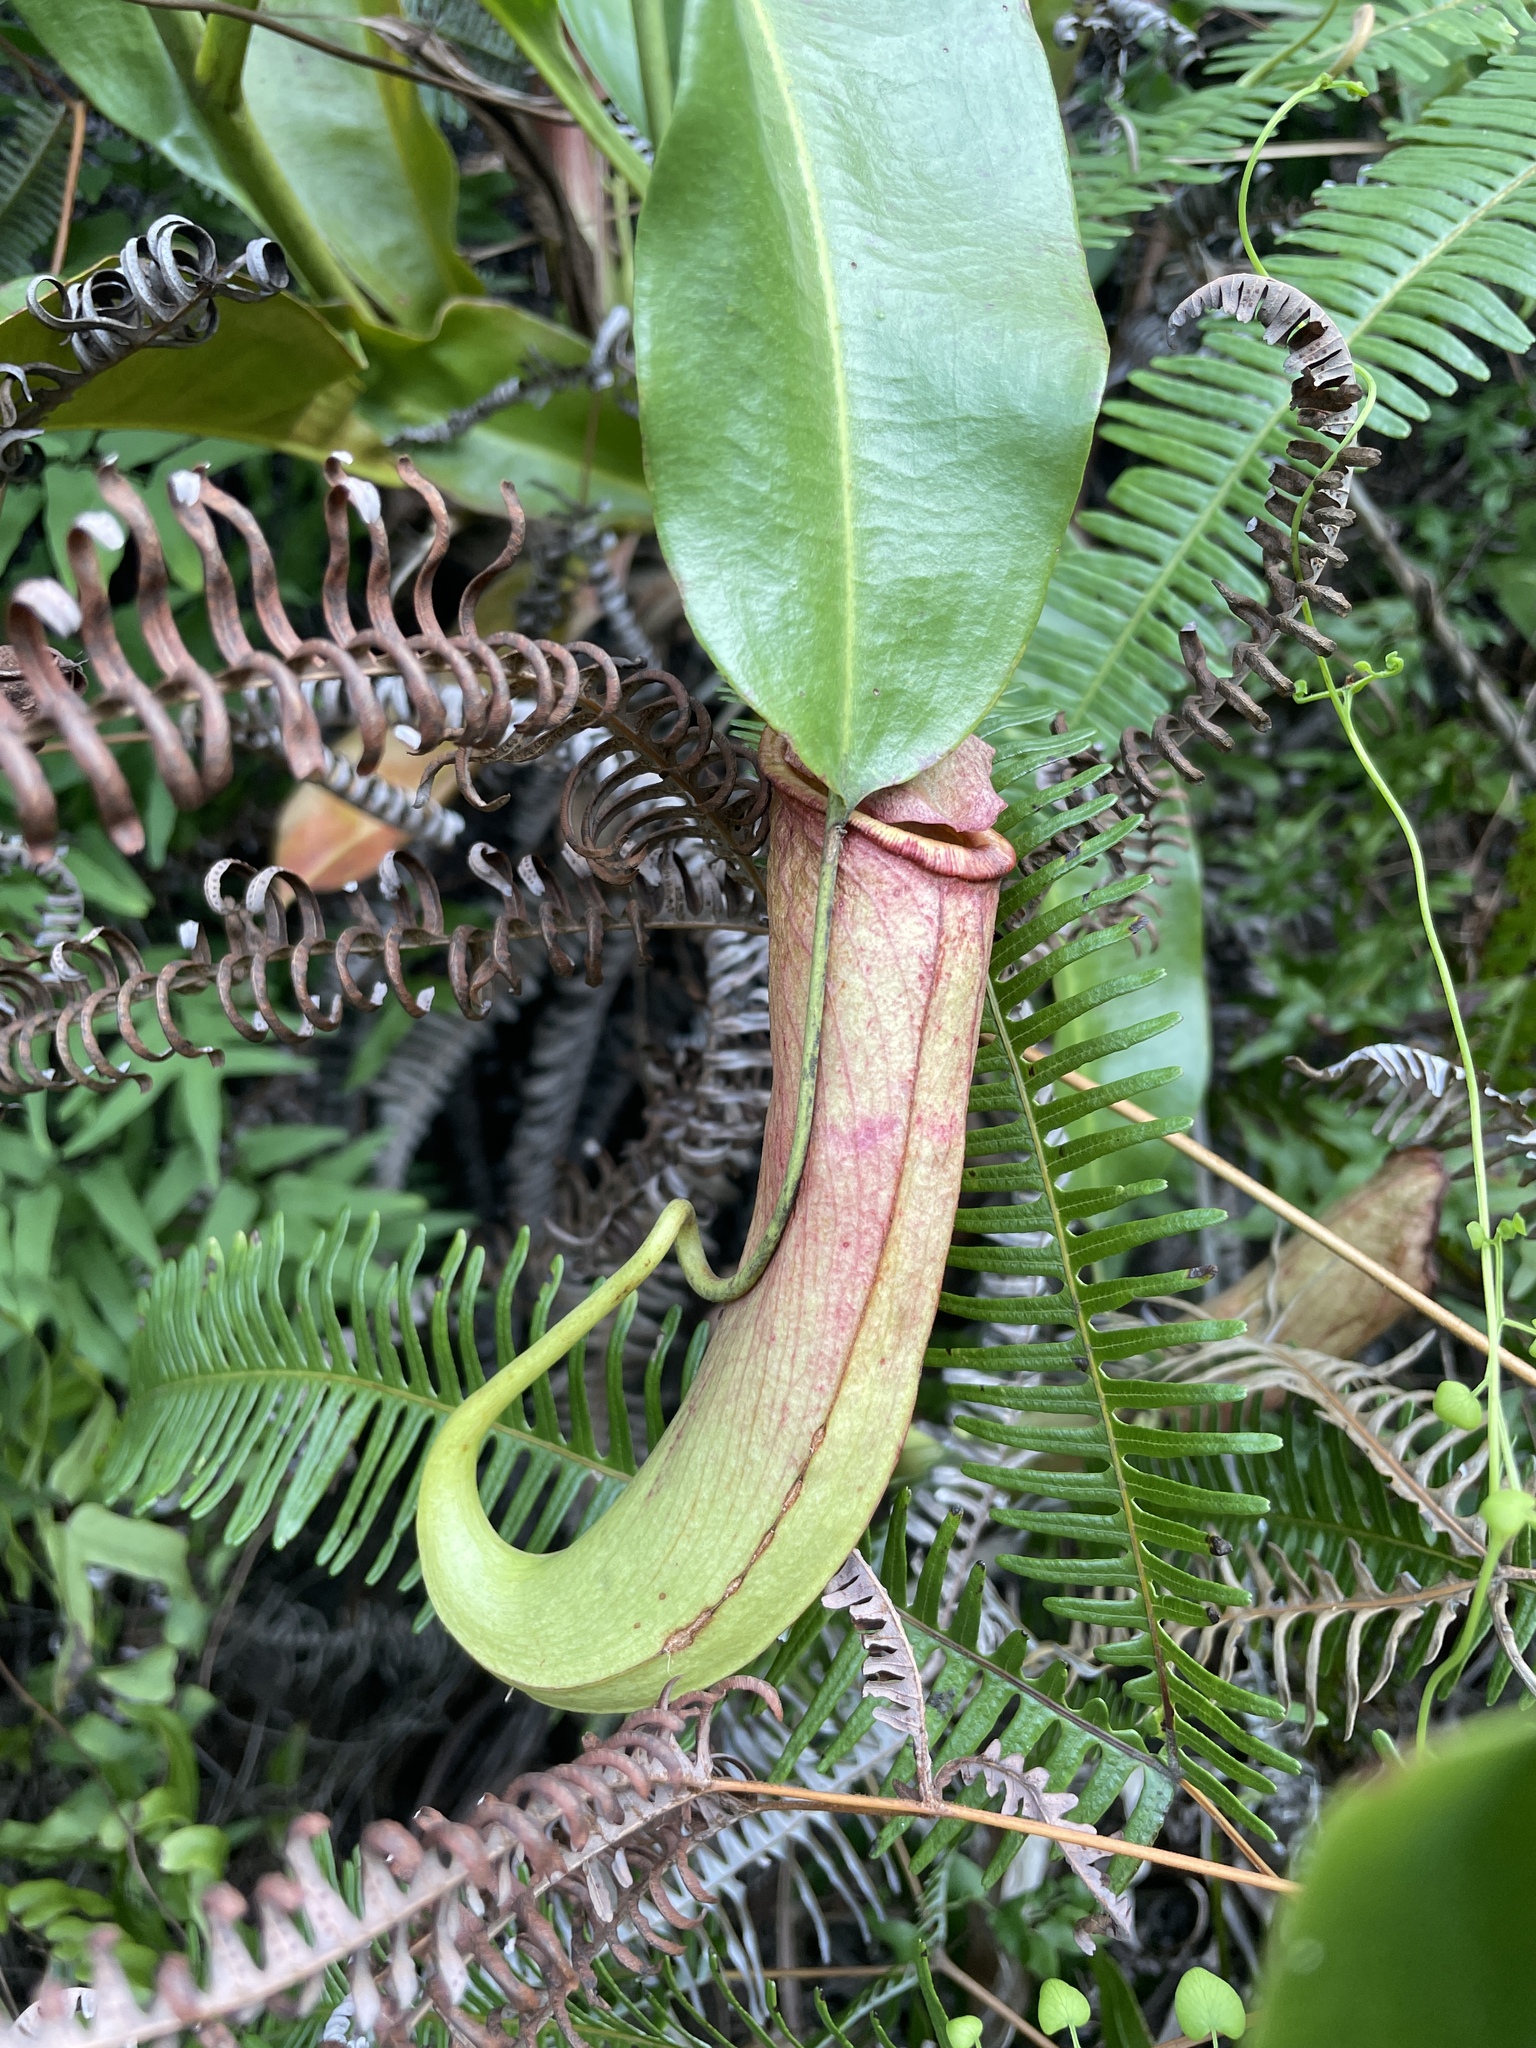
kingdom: Plantae
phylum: Tracheophyta
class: Magnoliopsida
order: Caryophyllales
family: Nepenthaceae
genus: Nepenthes
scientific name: Nepenthes mirabilis
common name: Tropical pitcherplant
